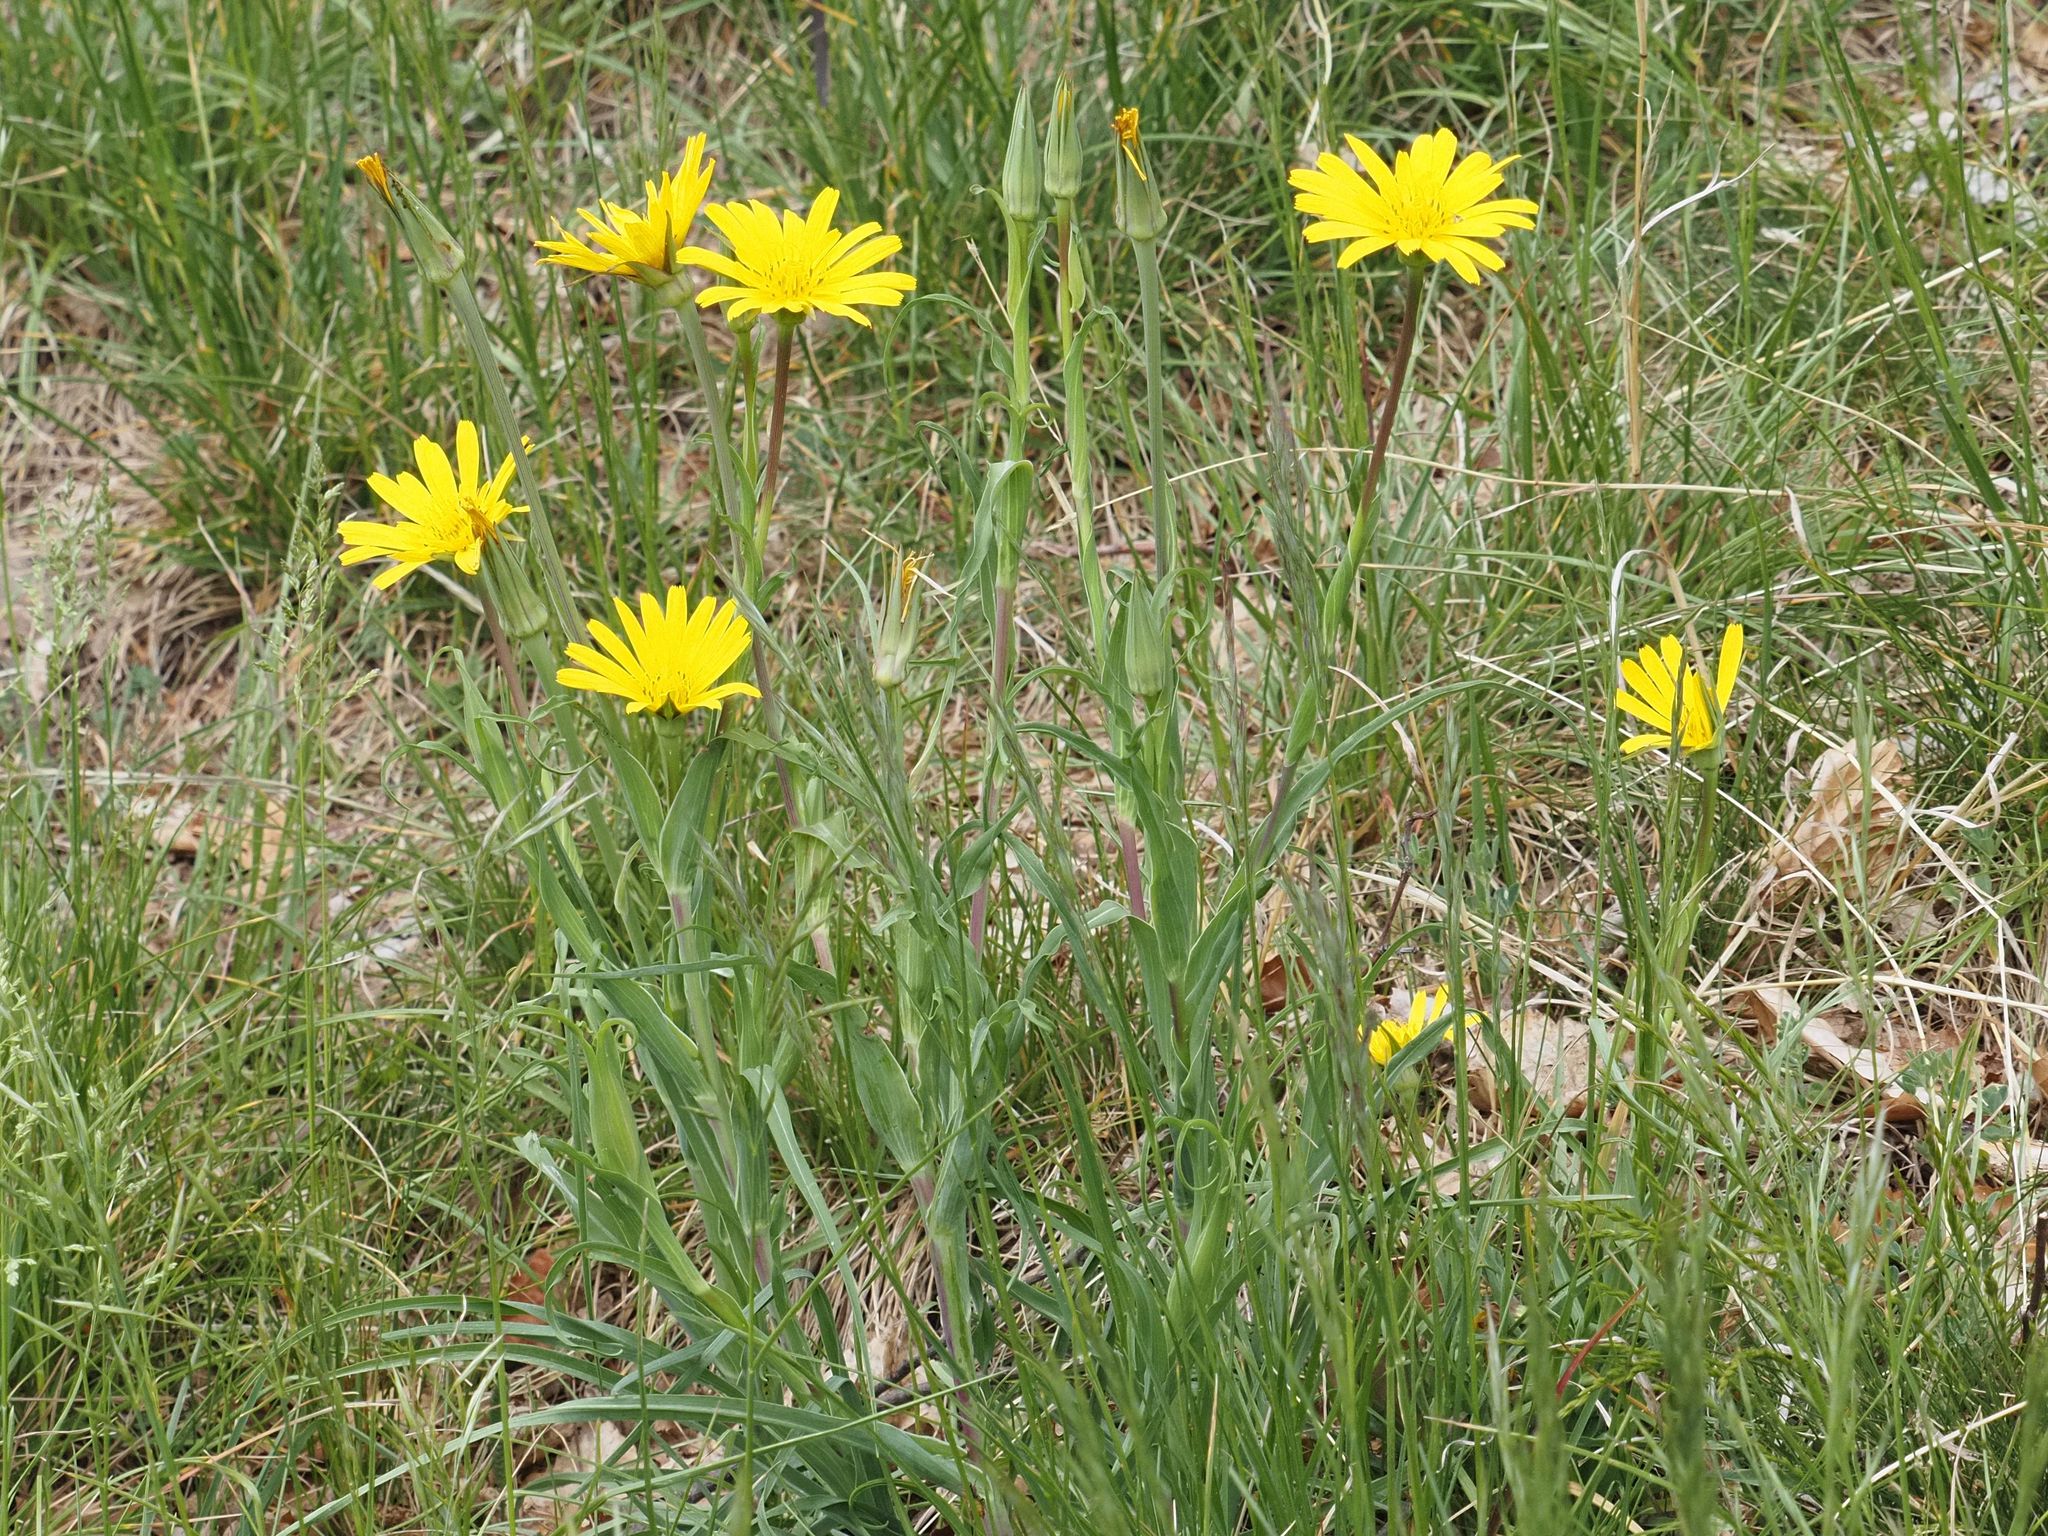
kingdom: Plantae
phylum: Tracheophyta
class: Magnoliopsida
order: Asterales
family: Asteraceae
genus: Tragopogon
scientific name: Tragopogon orientalis
